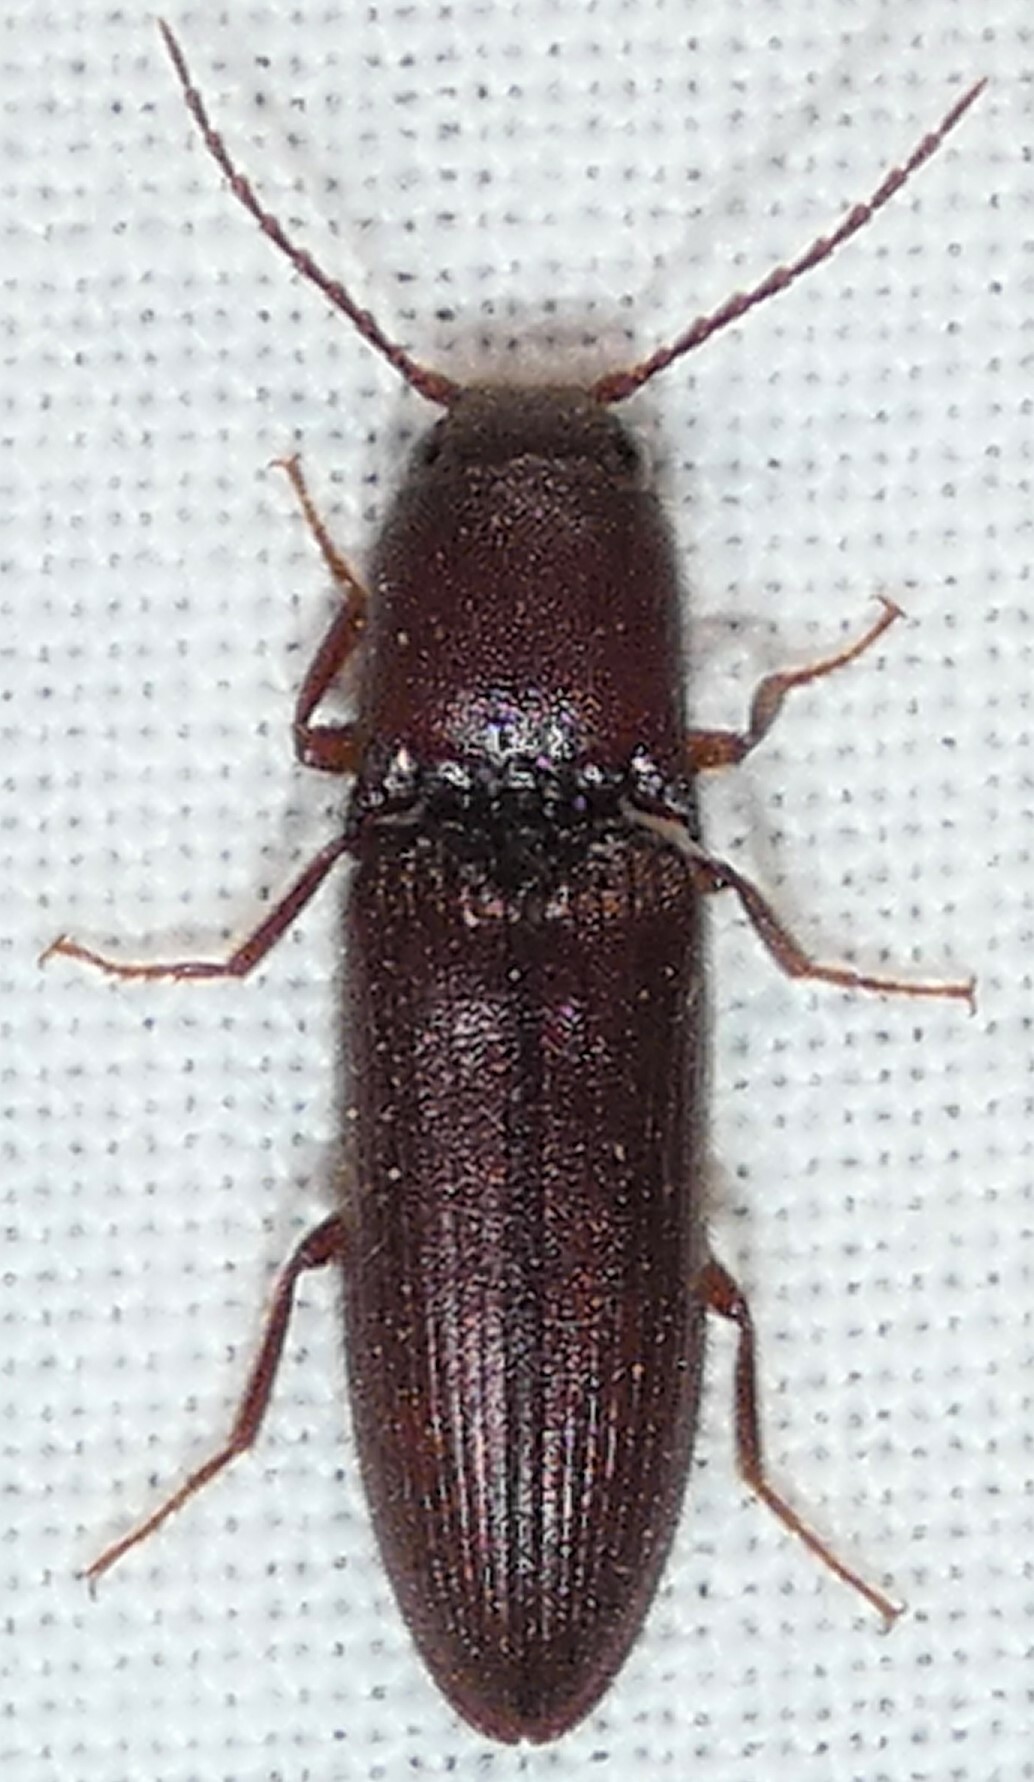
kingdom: Animalia
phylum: Arthropoda
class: Insecta
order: Coleoptera
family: Elateridae
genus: Blauta
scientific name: Blauta
